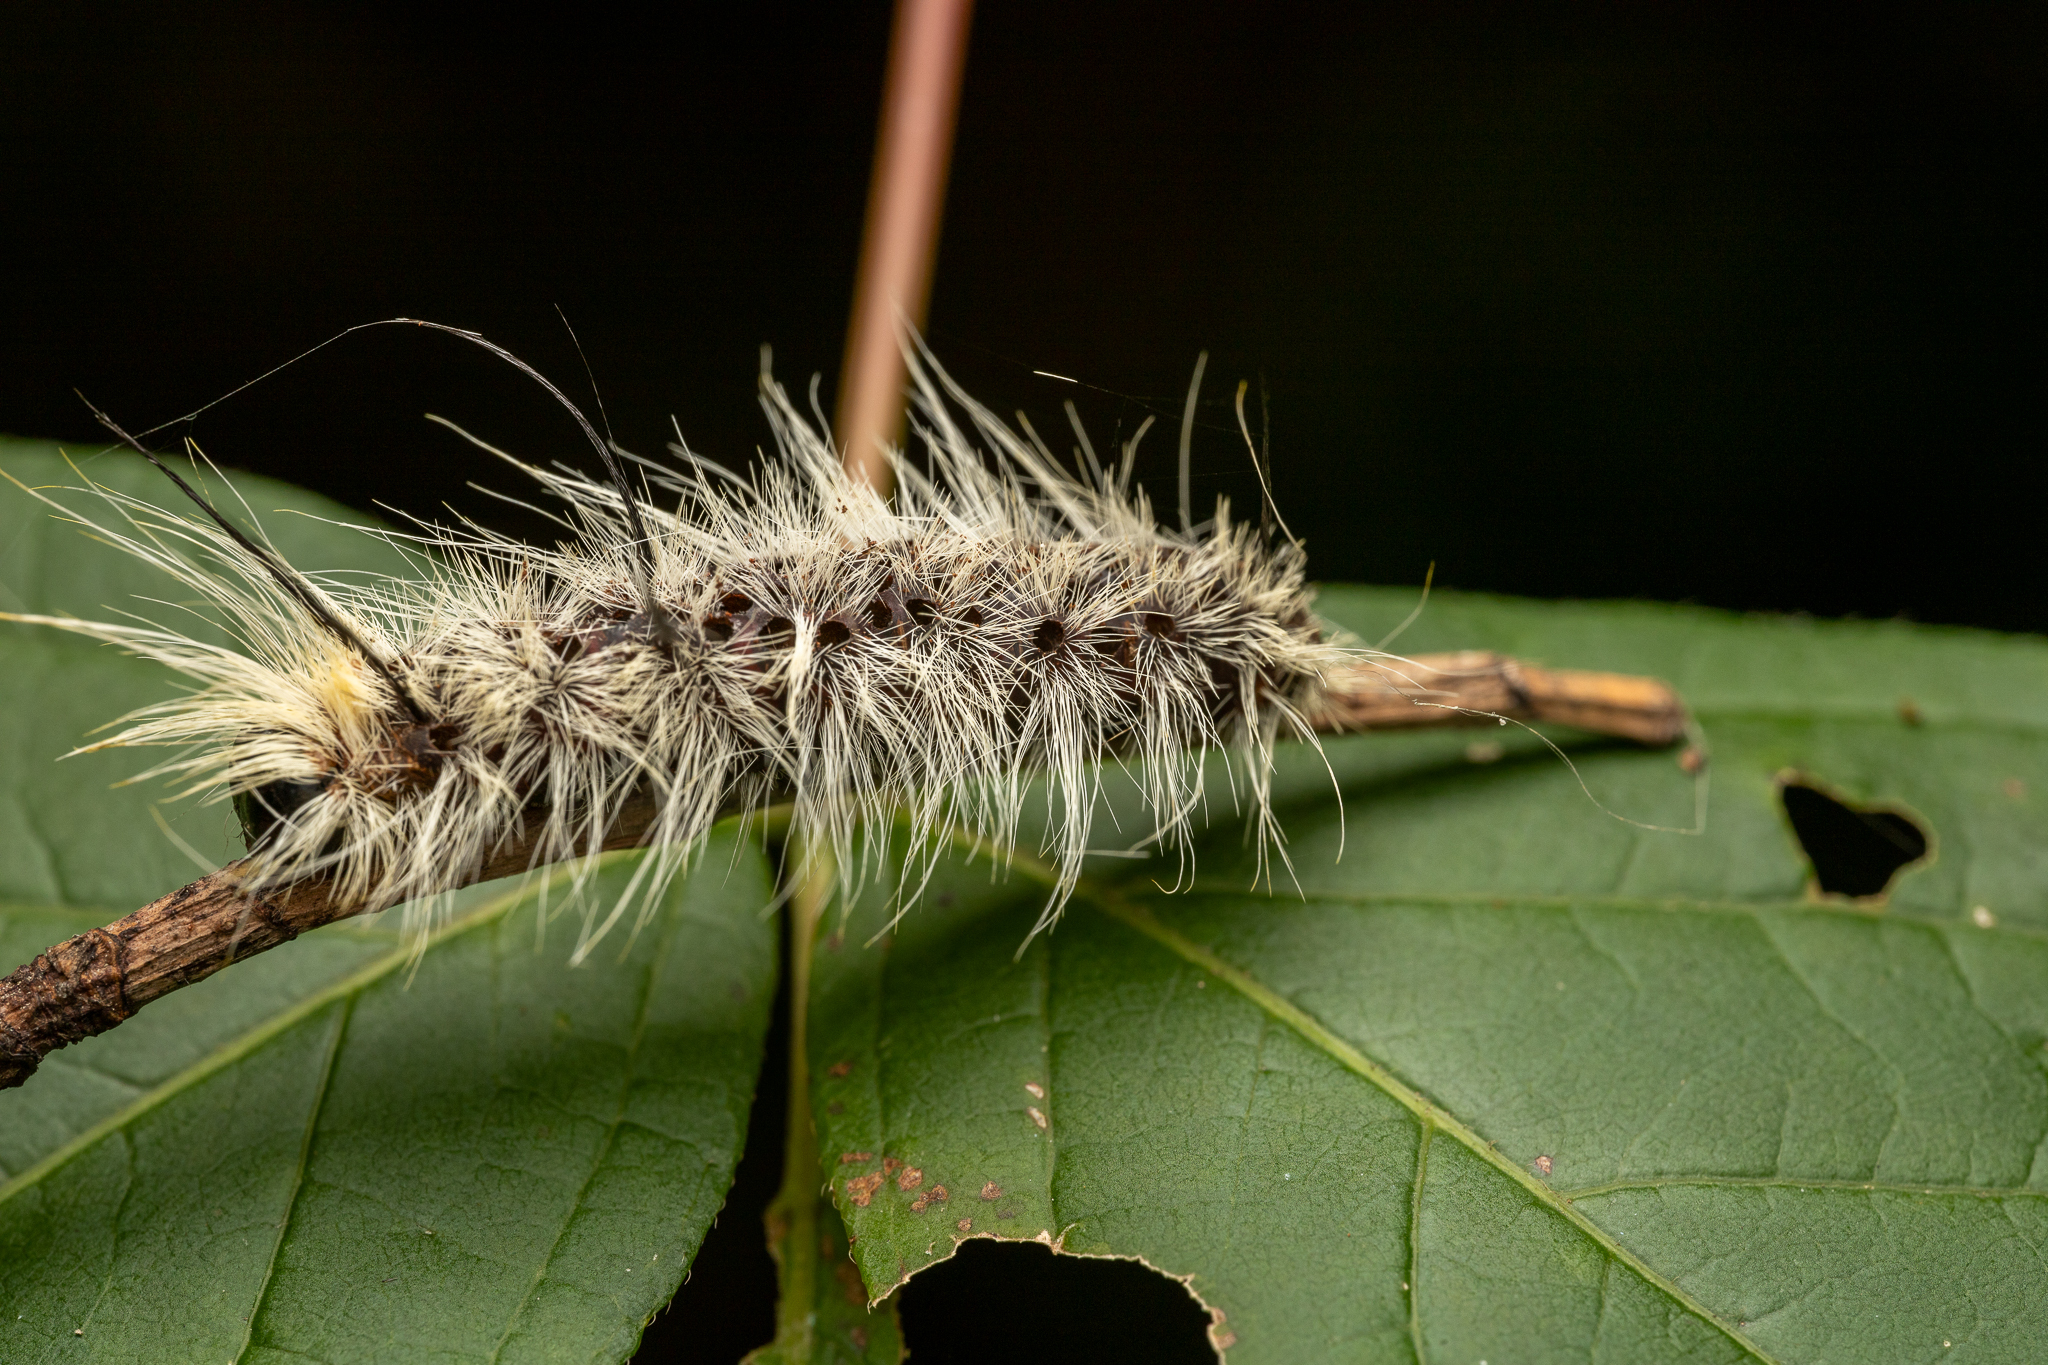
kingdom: Animalia
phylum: Arthropoda
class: Insecta
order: Lepidoptera
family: Noctuidae
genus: Acronicta
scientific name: Acronicta americana
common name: American dagger
